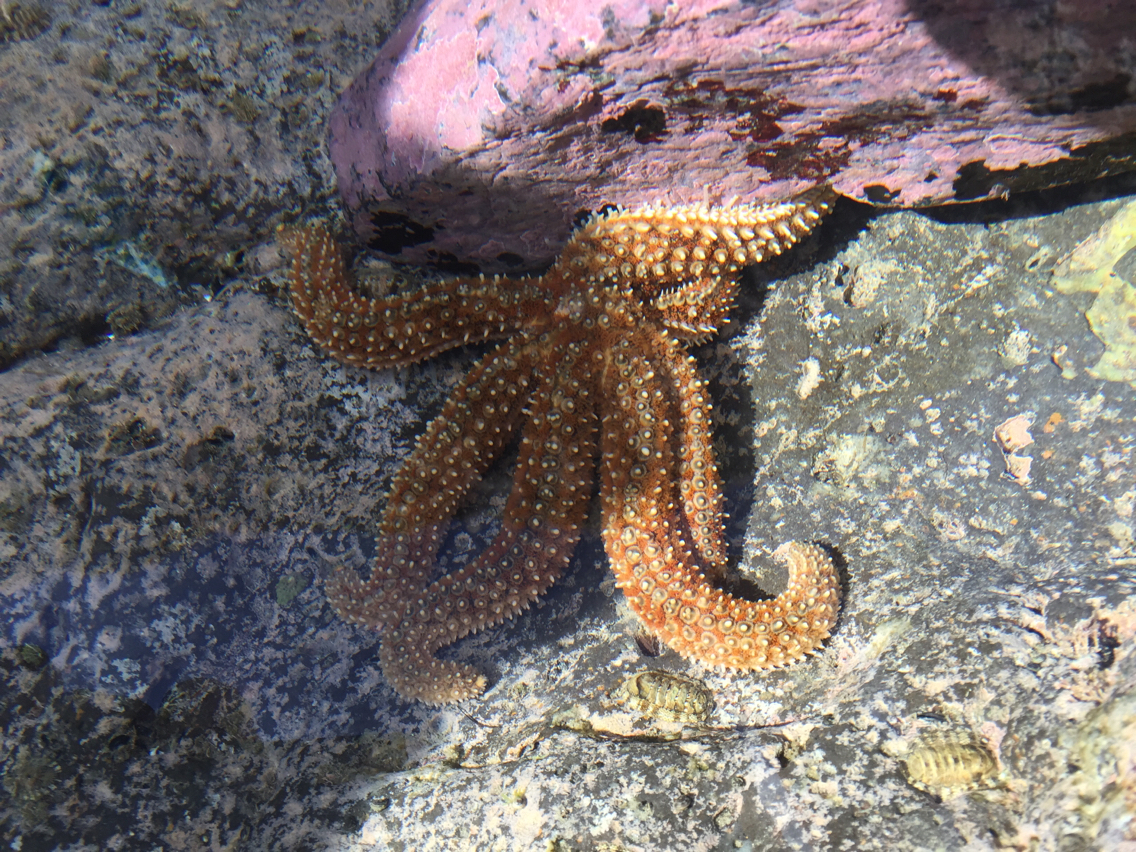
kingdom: Animalia
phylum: Echinodermata
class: Asteroidea
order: Forcipulatida
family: Asteriidae
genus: Coscinasterias
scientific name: Coscinasterias muricata
